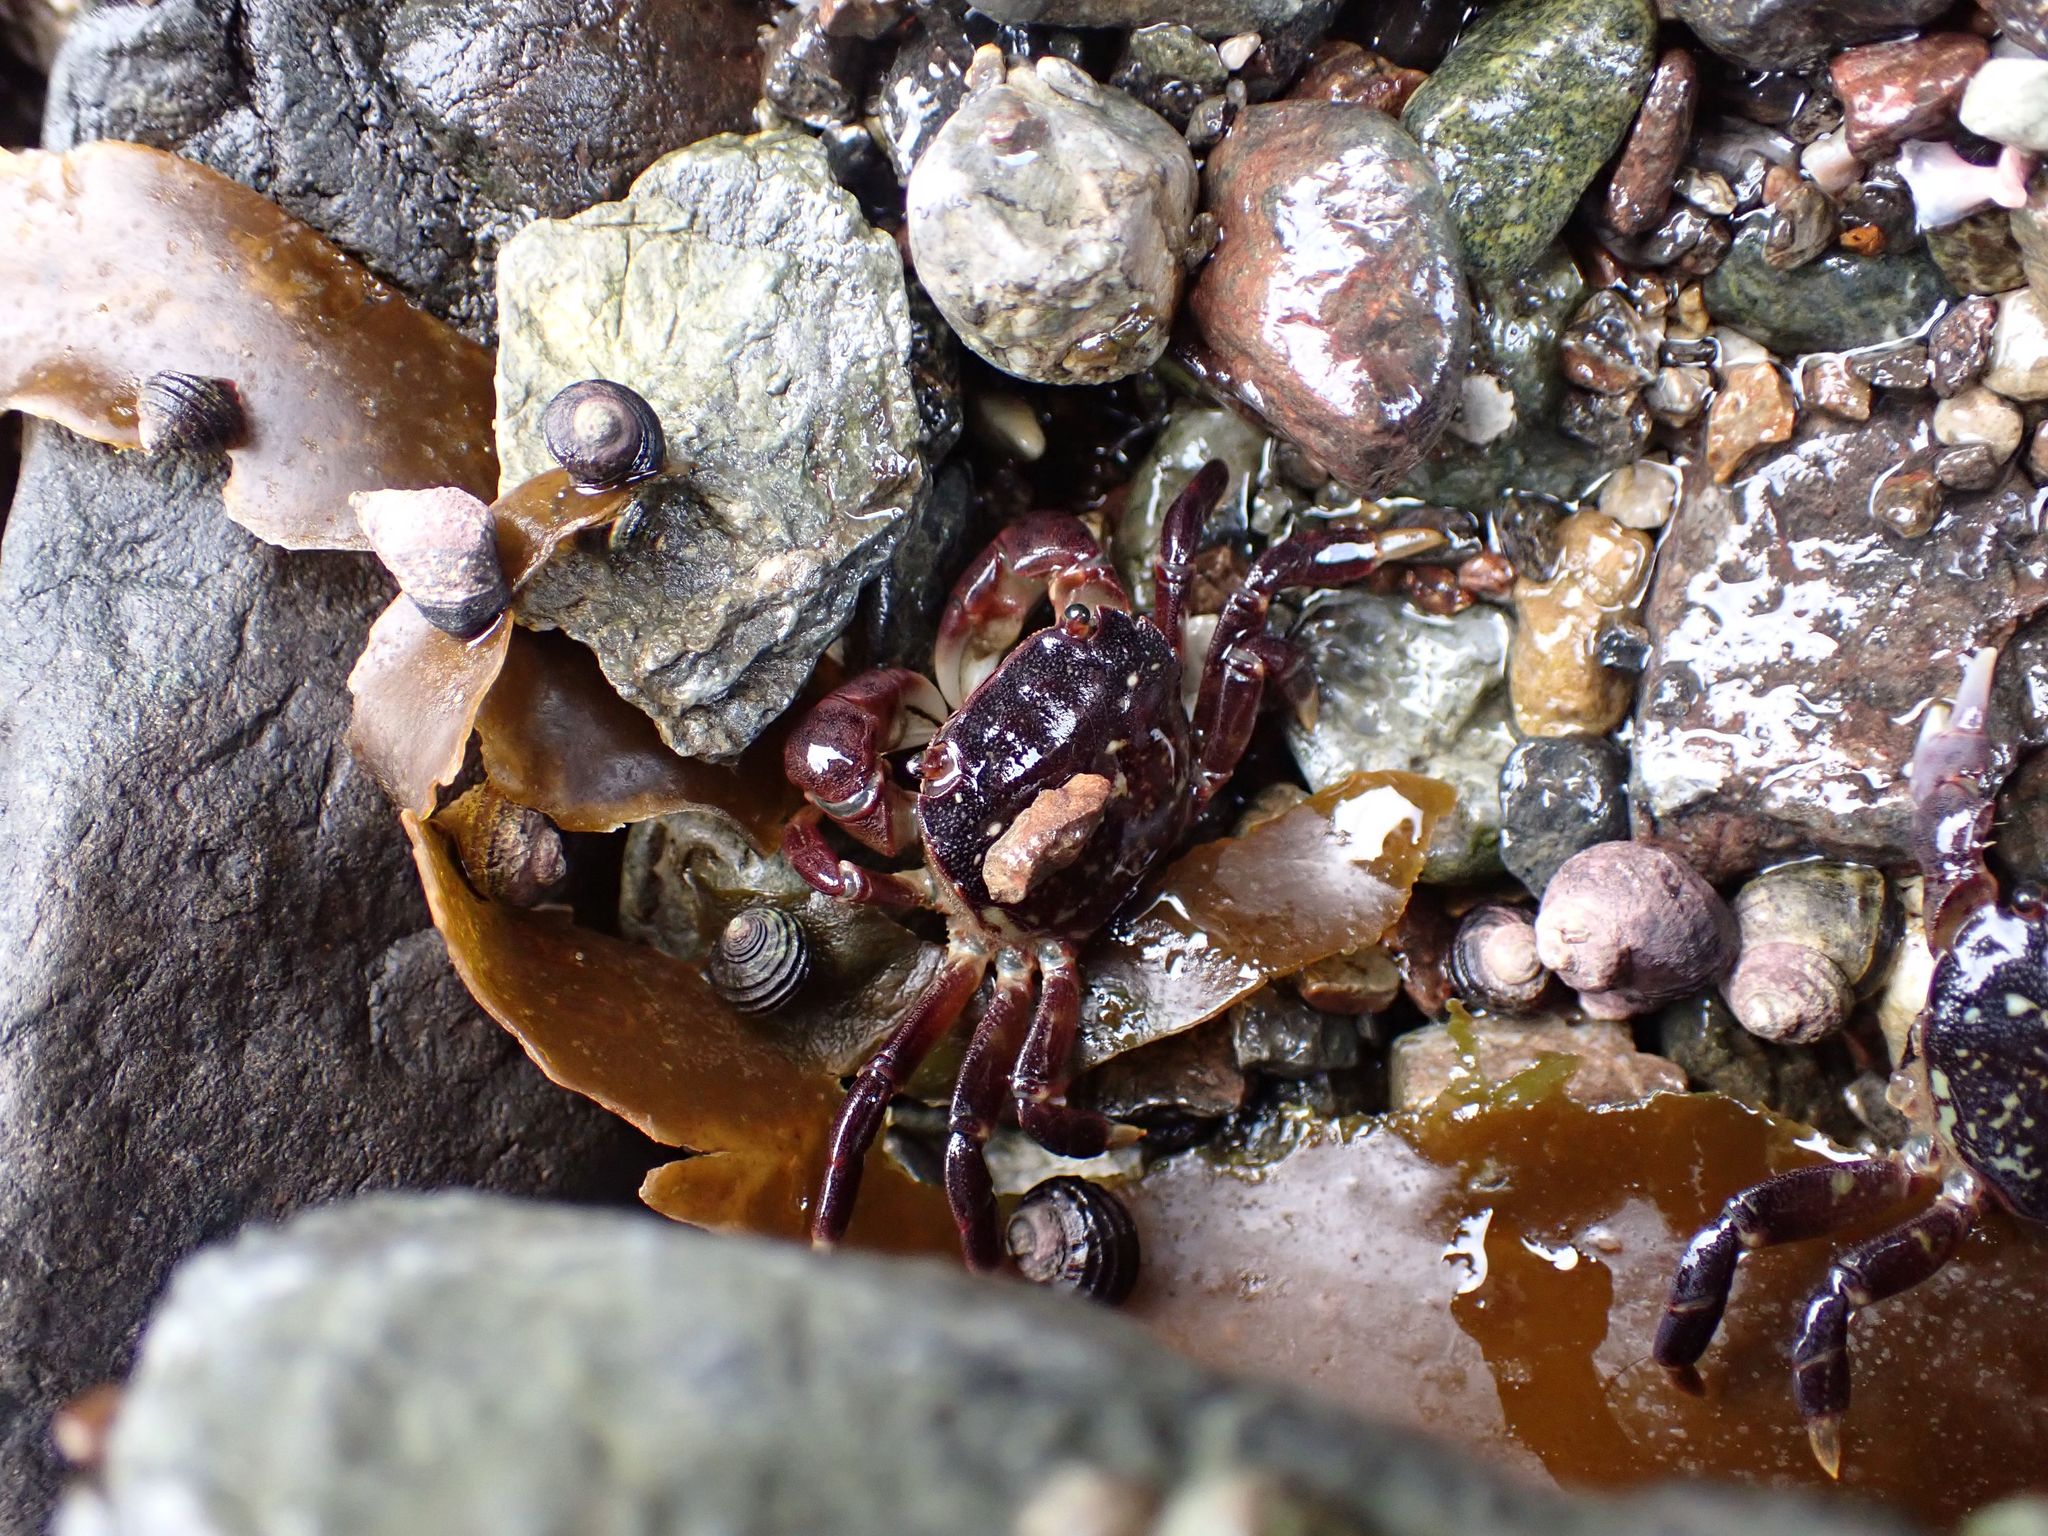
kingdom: Animalia
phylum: Arthropoda
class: Malacostraca
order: Decapoda
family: Varunidae
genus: Hemigrapsus
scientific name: Hemigrapsus nudus
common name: Purple shore crab
